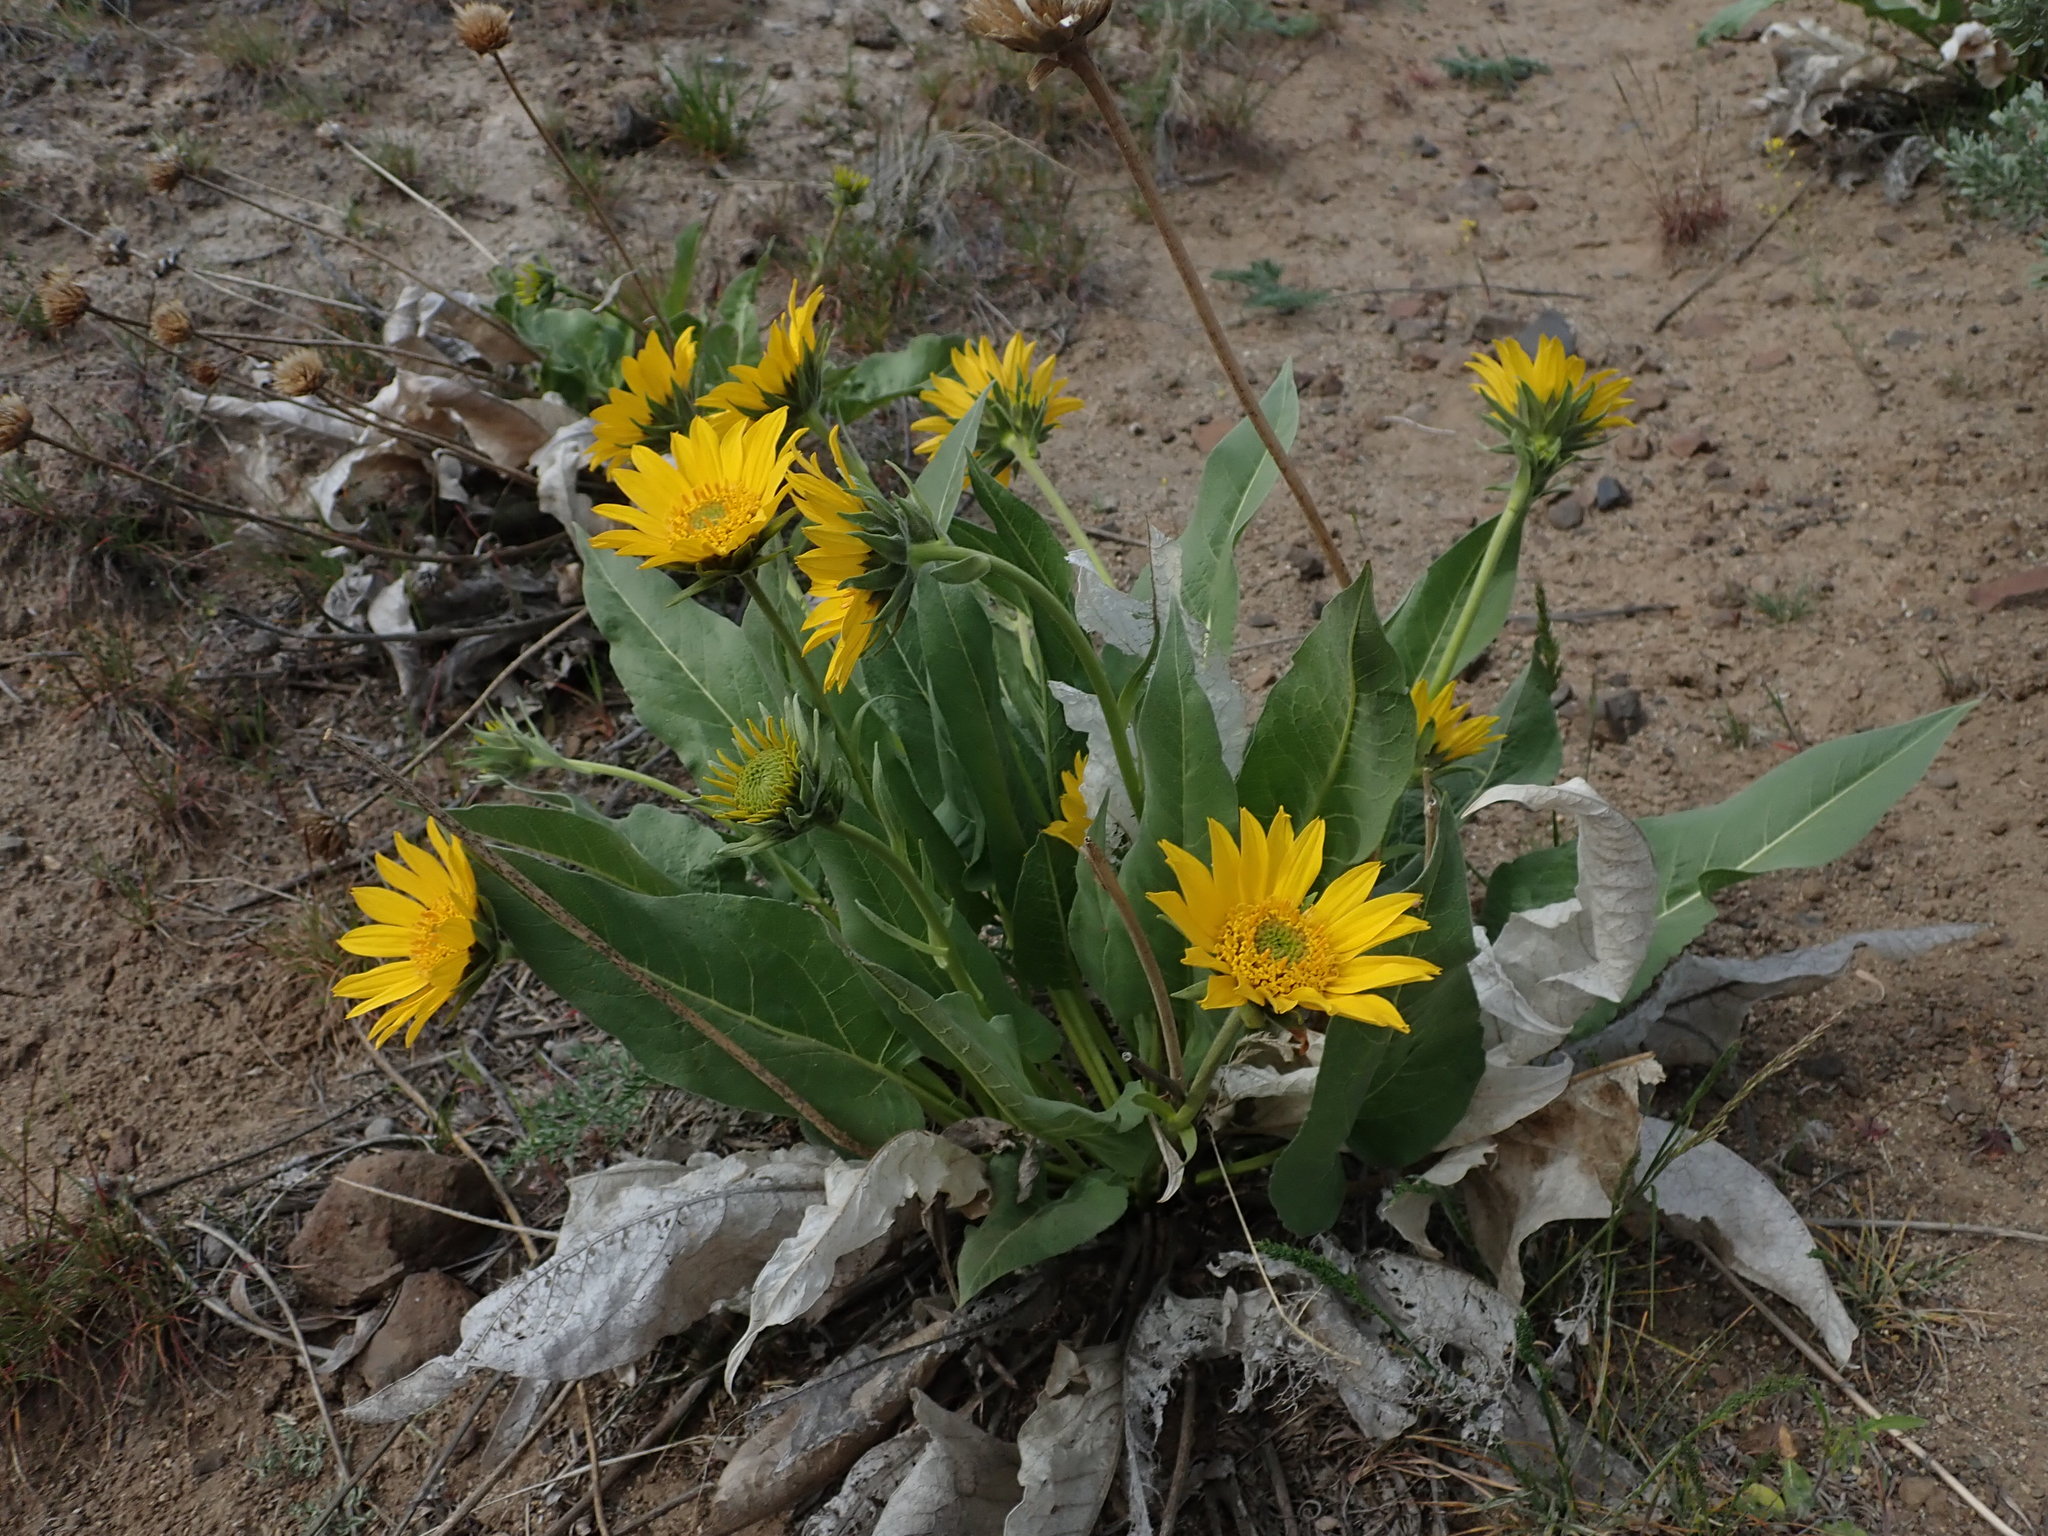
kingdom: Plantae
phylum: Tracheophyta
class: Magnoliopsida
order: Asterales
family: Asteraceae
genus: Balsamorhiza
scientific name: Balsamorhiza careyana
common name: Carey's balsamroot
